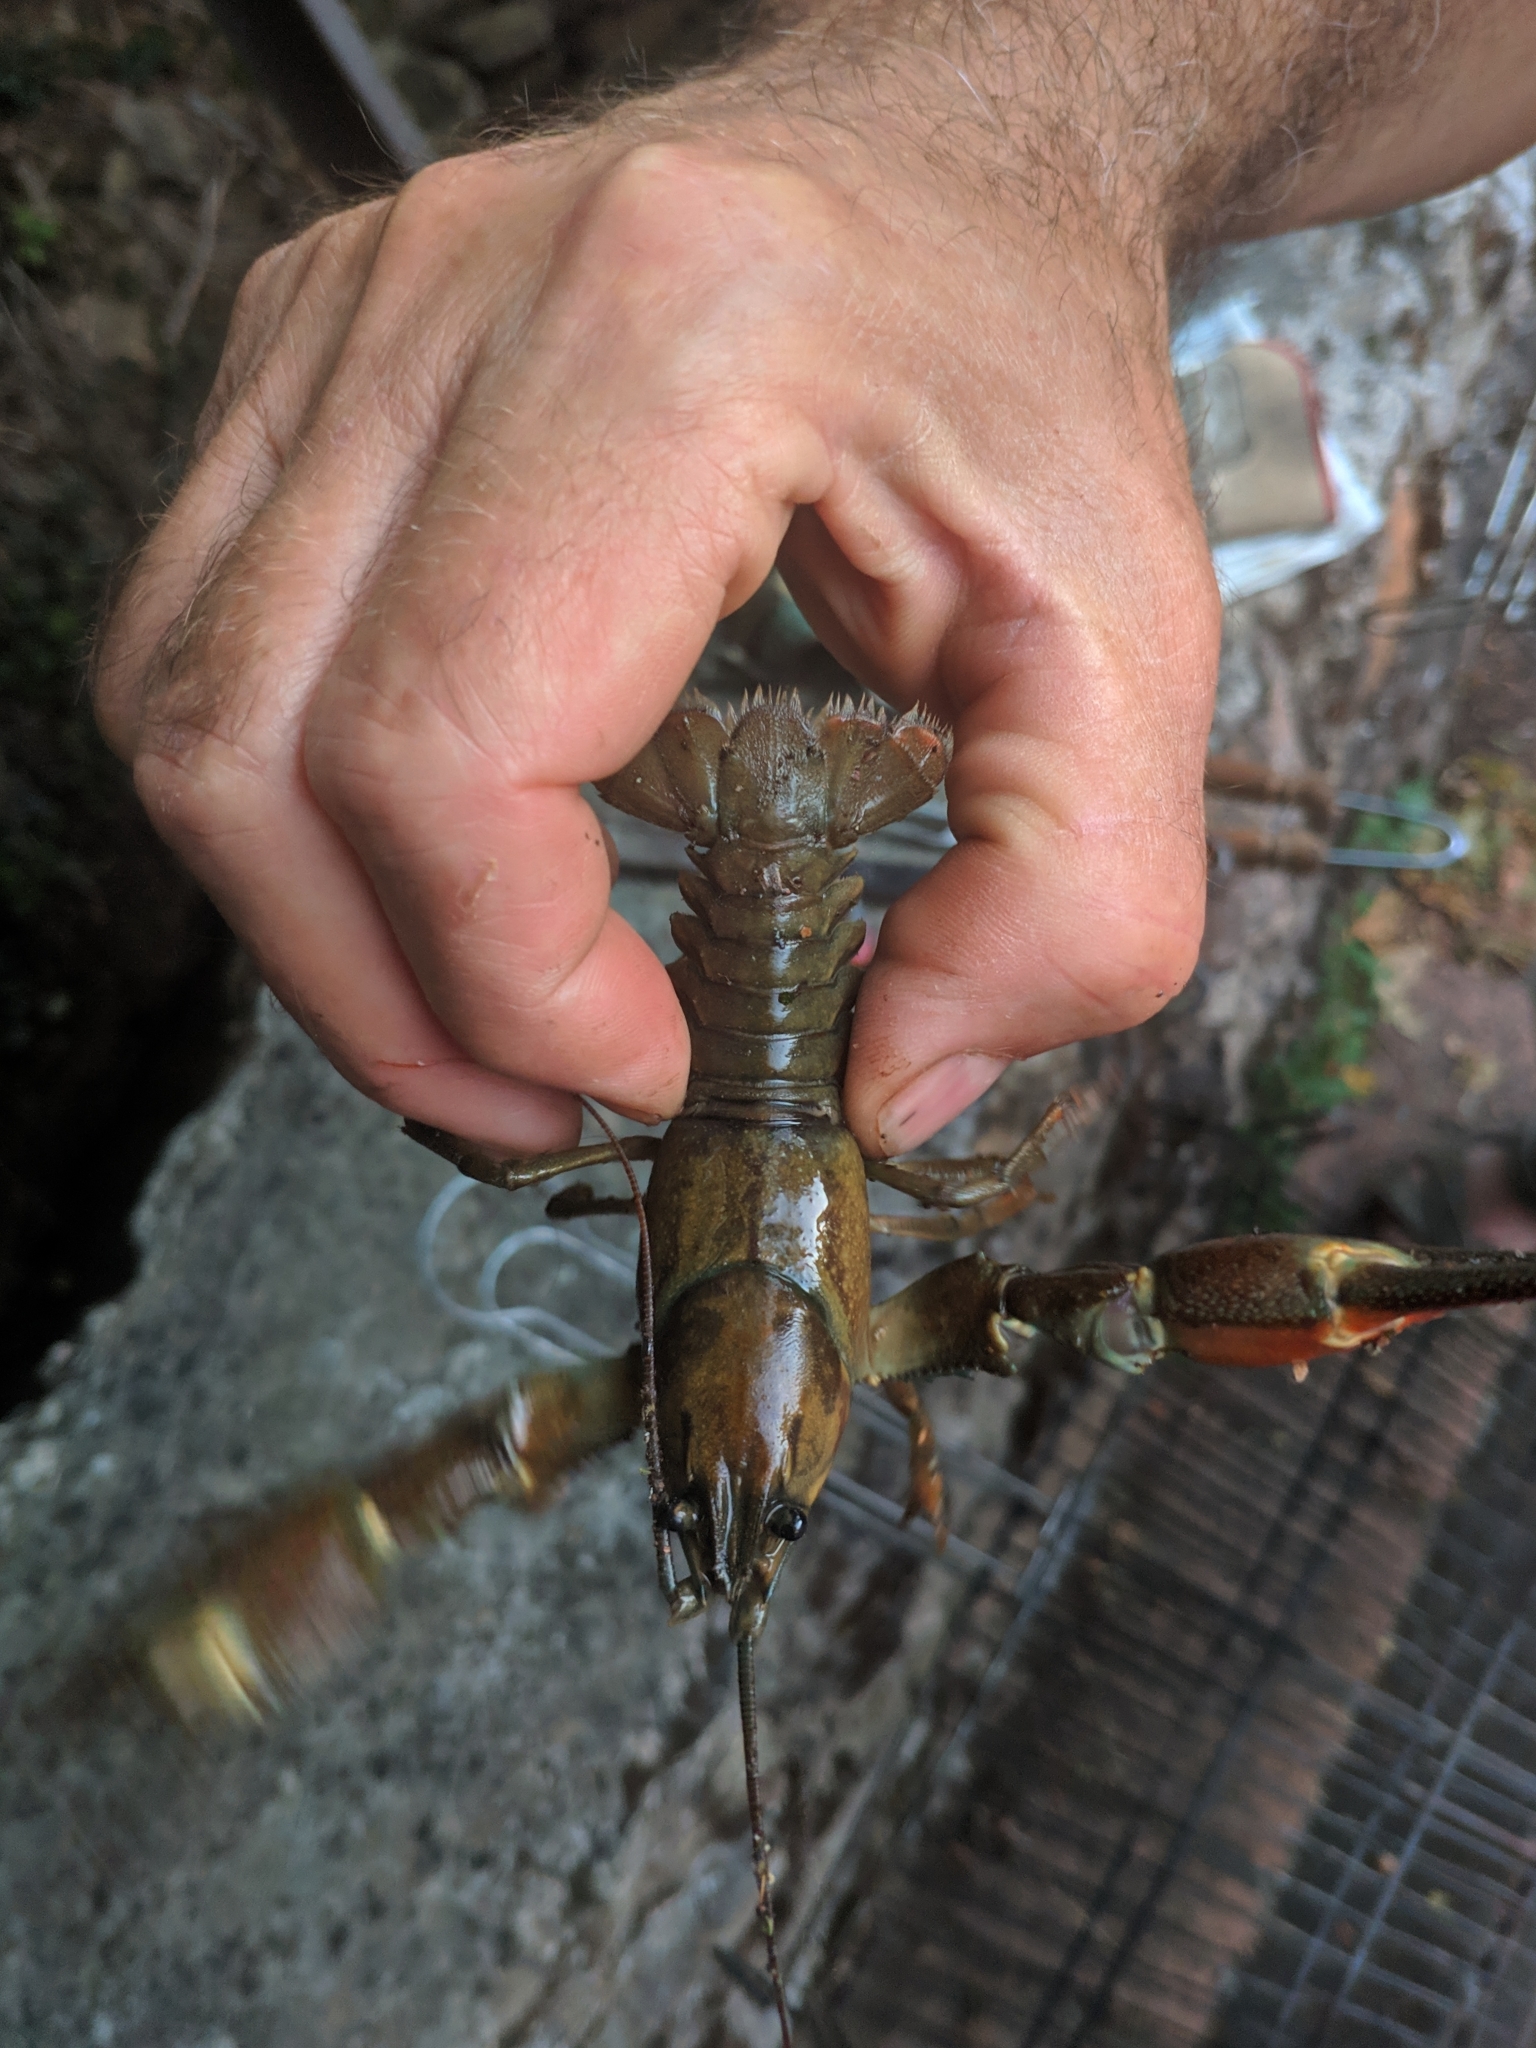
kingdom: Animalia
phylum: Arthropoda
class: Malacostraca
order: Decapoda
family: Astacidae
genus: Pacifastacus
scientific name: Pacifastacus leniusculus
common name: Signal crayfish
